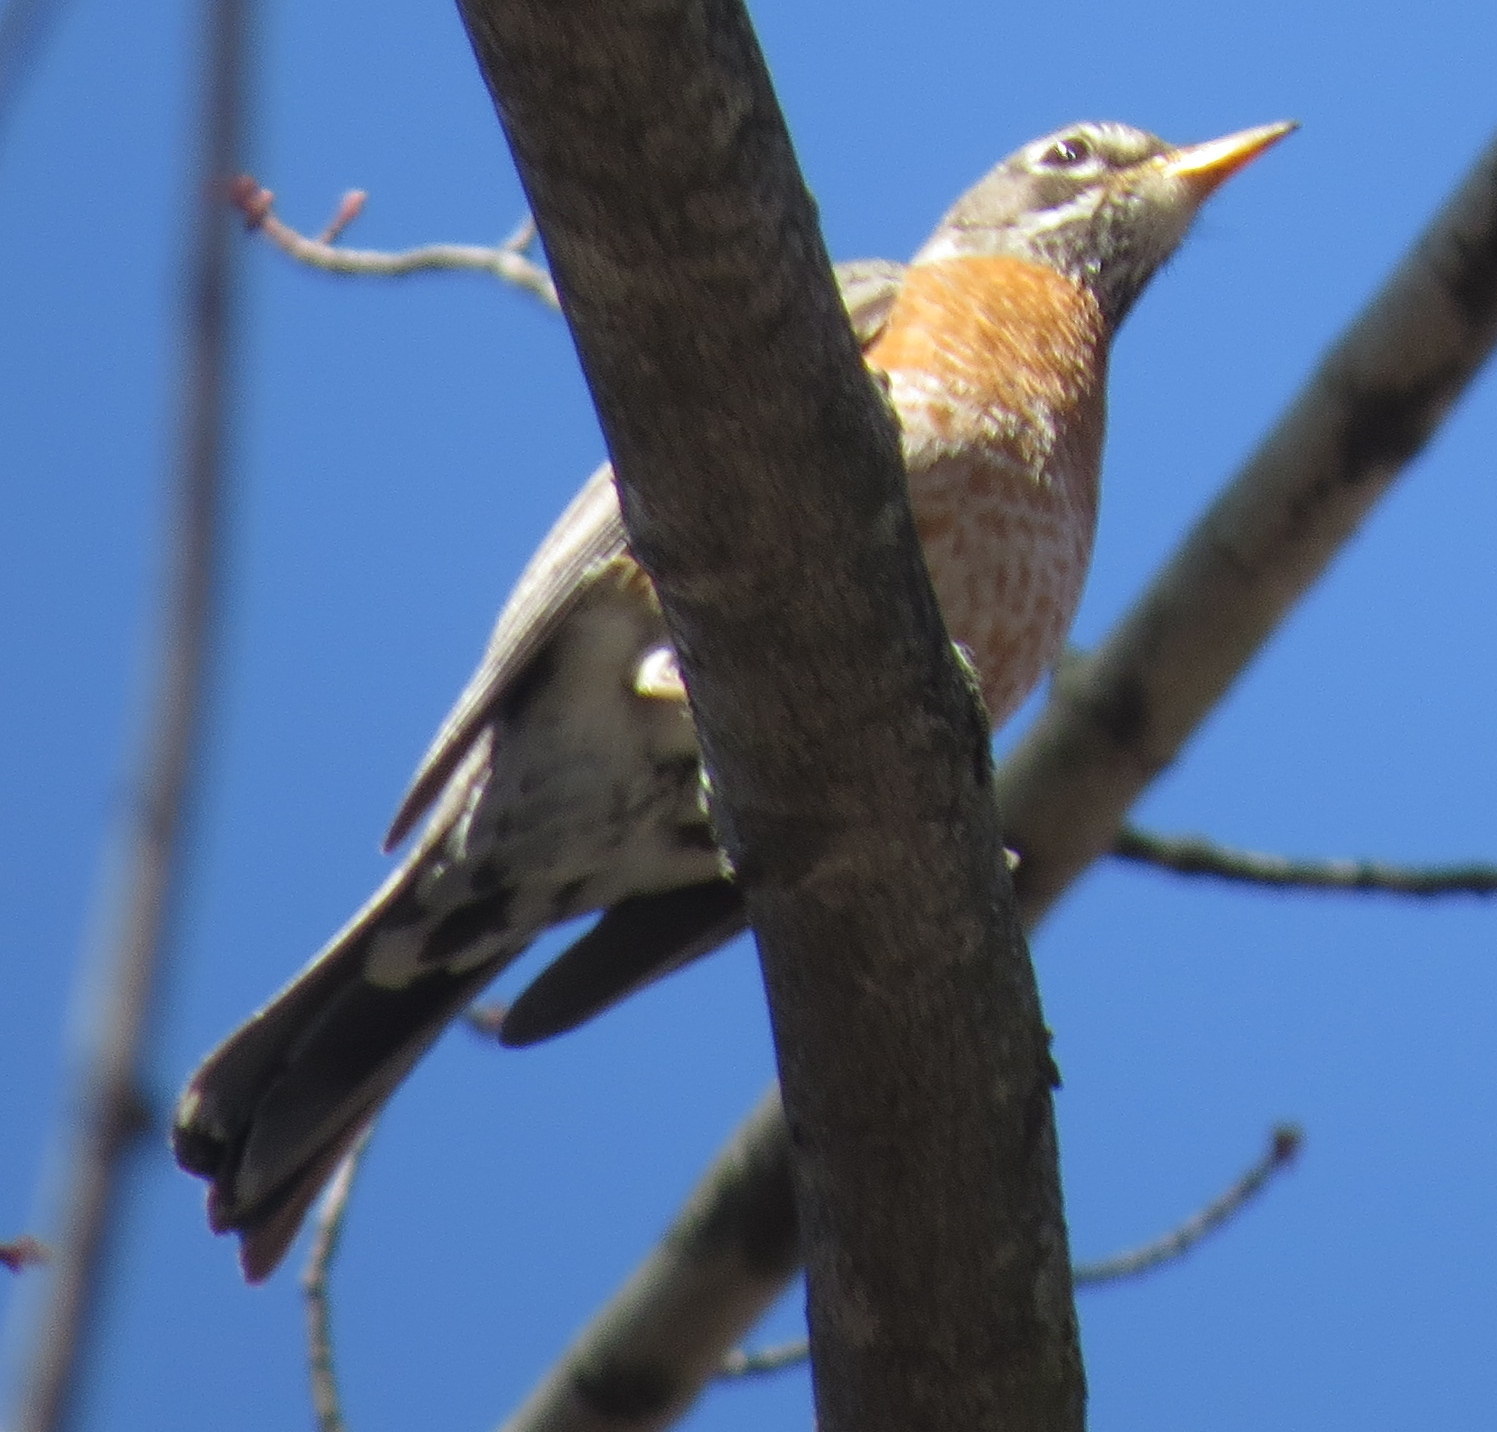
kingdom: Animalia
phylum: Chordata
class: Aves
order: Passeriformes
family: Turdidae
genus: Turdus
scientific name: Turdus migratorius
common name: American robin
